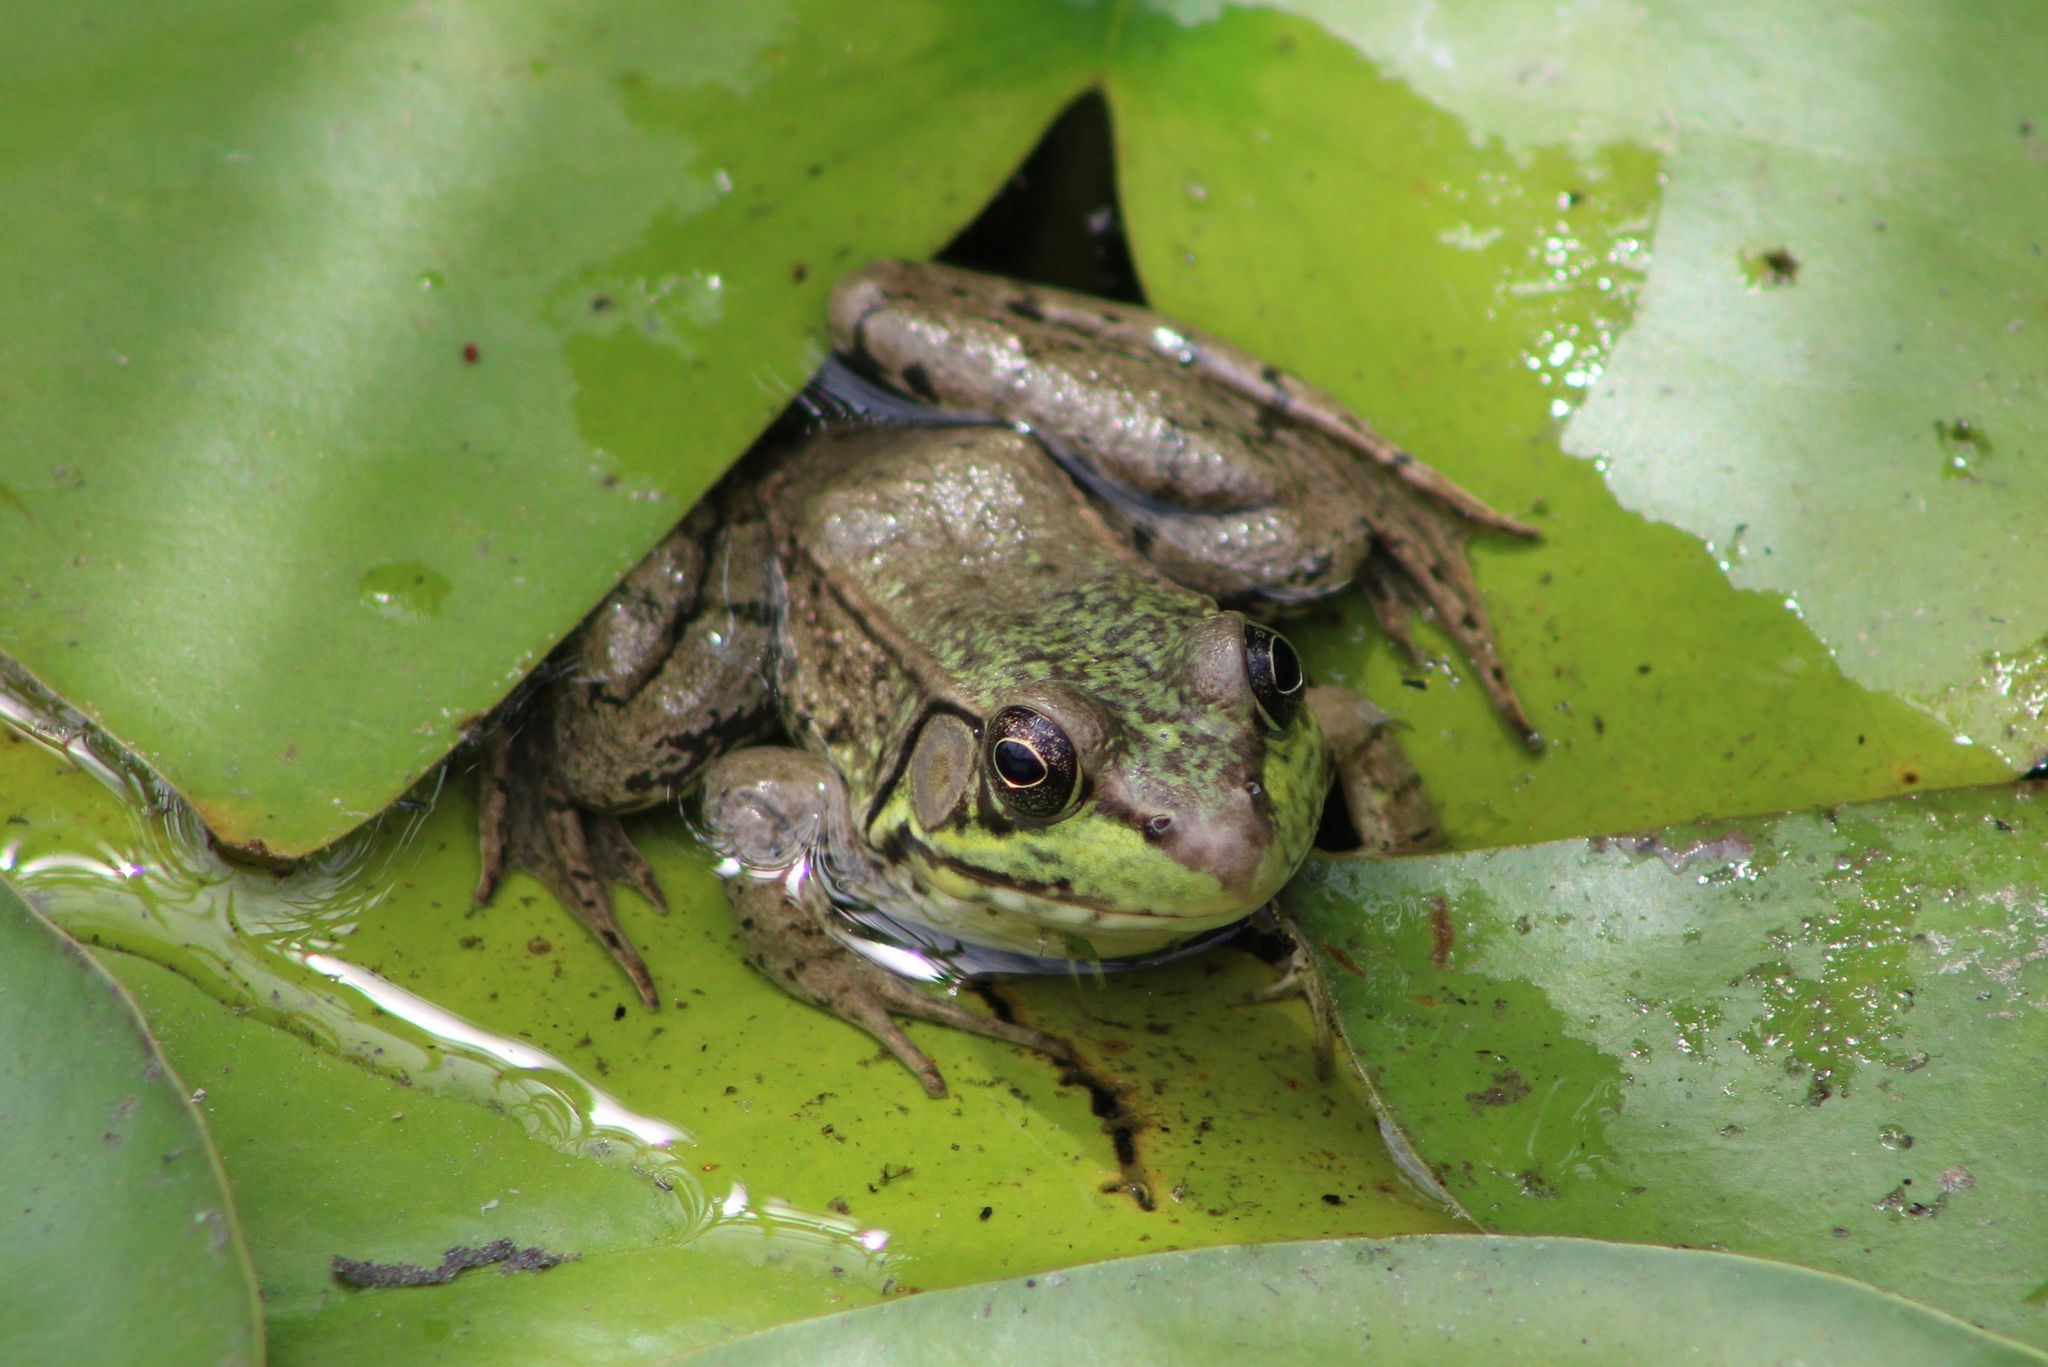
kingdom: Animalia
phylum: Chordata
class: Amphibia
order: Anura
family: Ranidae
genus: Lithobates
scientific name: Lithobates clamitans
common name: Green frog
